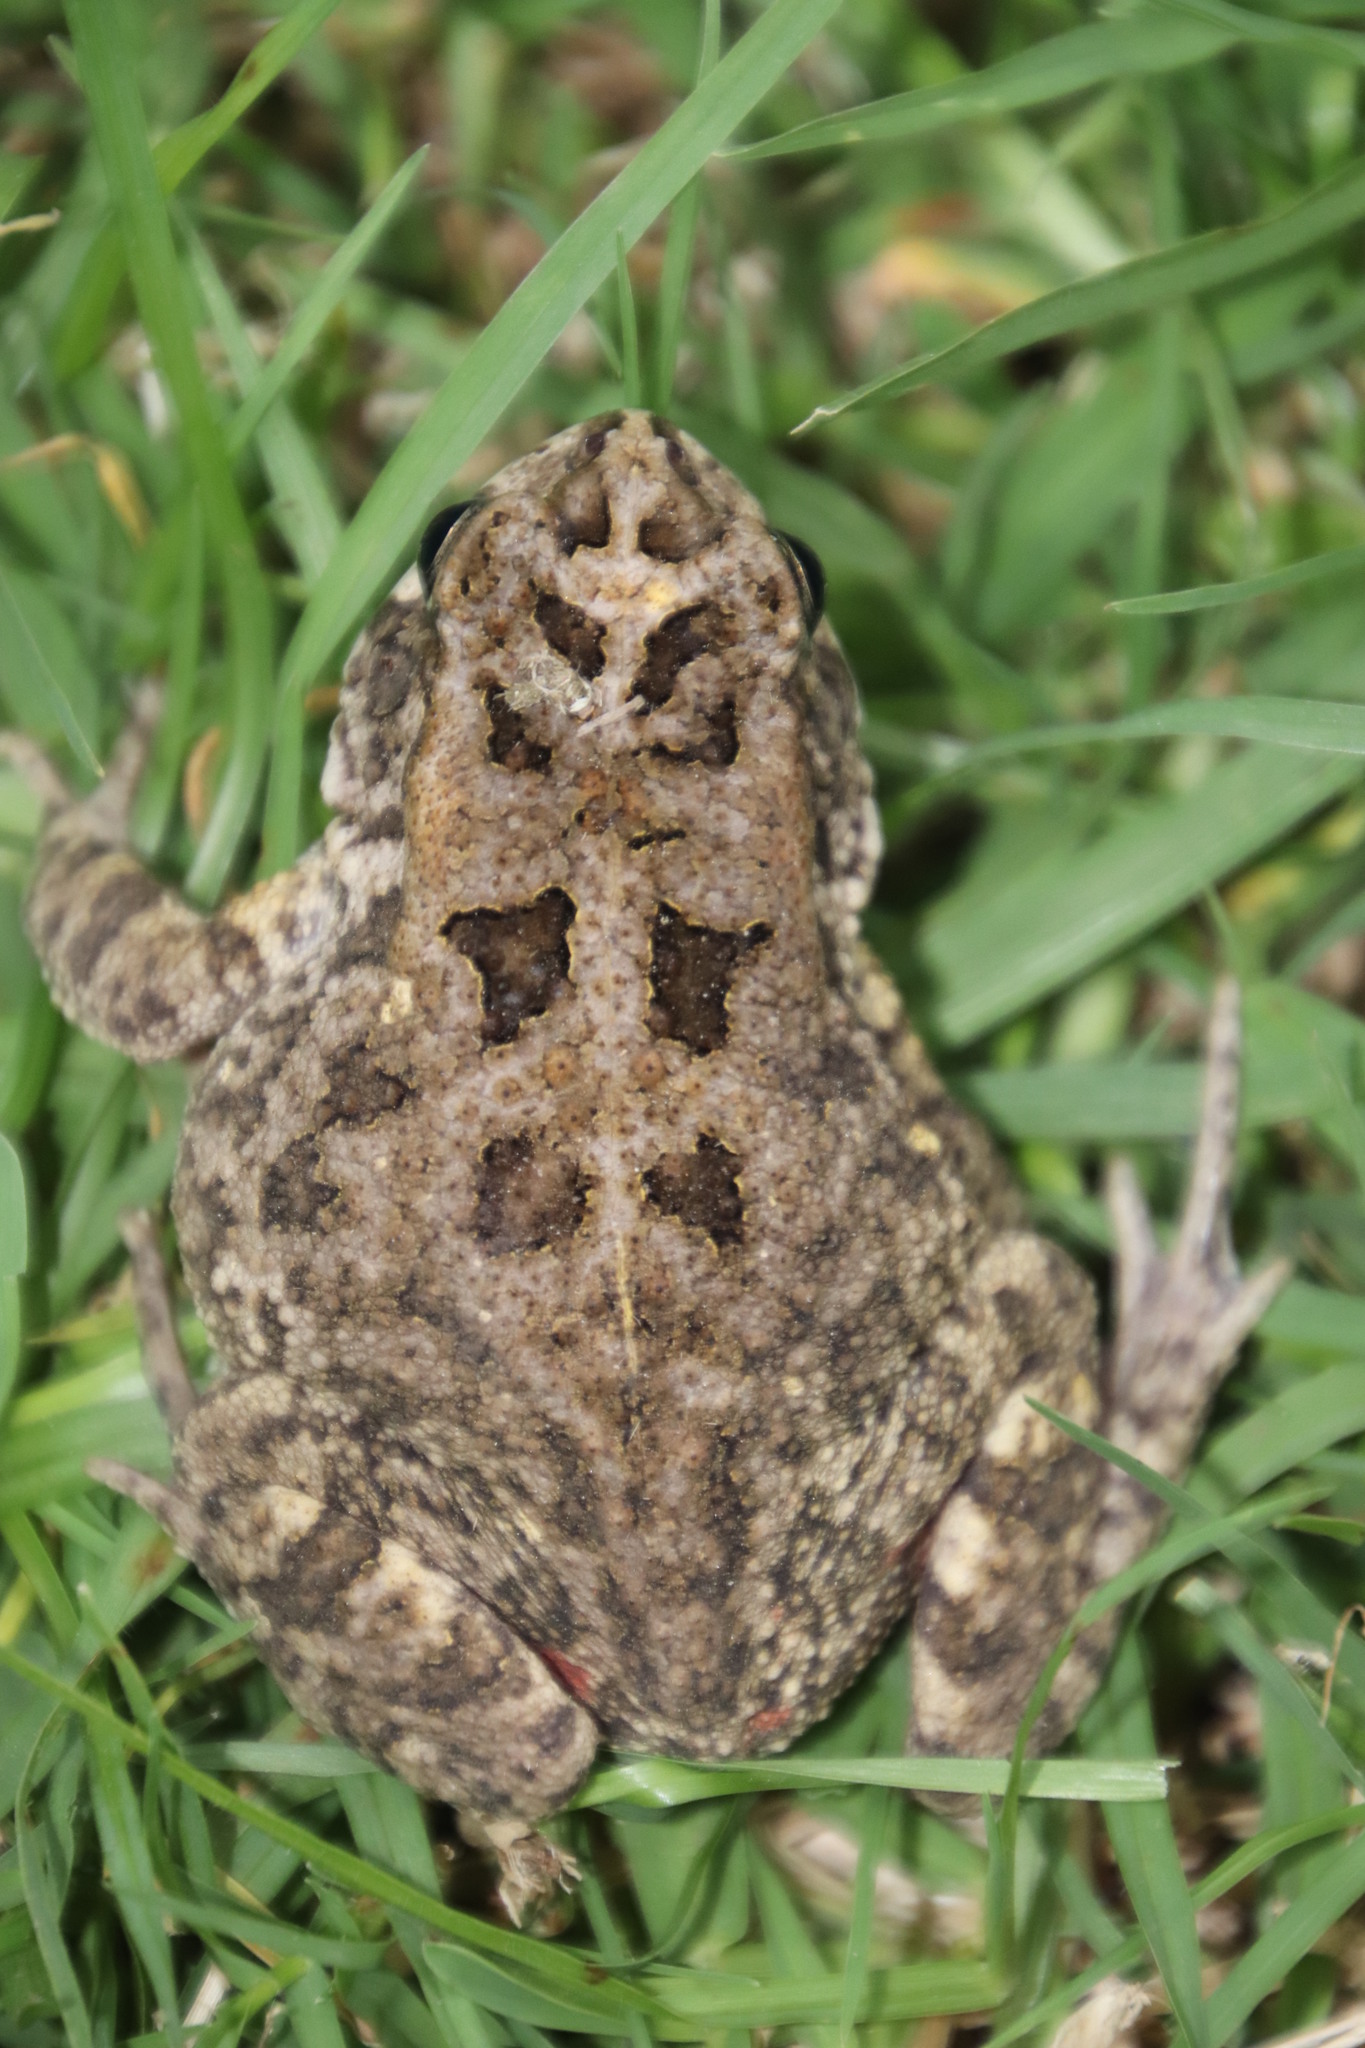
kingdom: Animalia
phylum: Chordata
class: Amphibia
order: Anura
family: Bufonidae
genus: Sclerophrys
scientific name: Sclerophrys gutturalis
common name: African common toad
